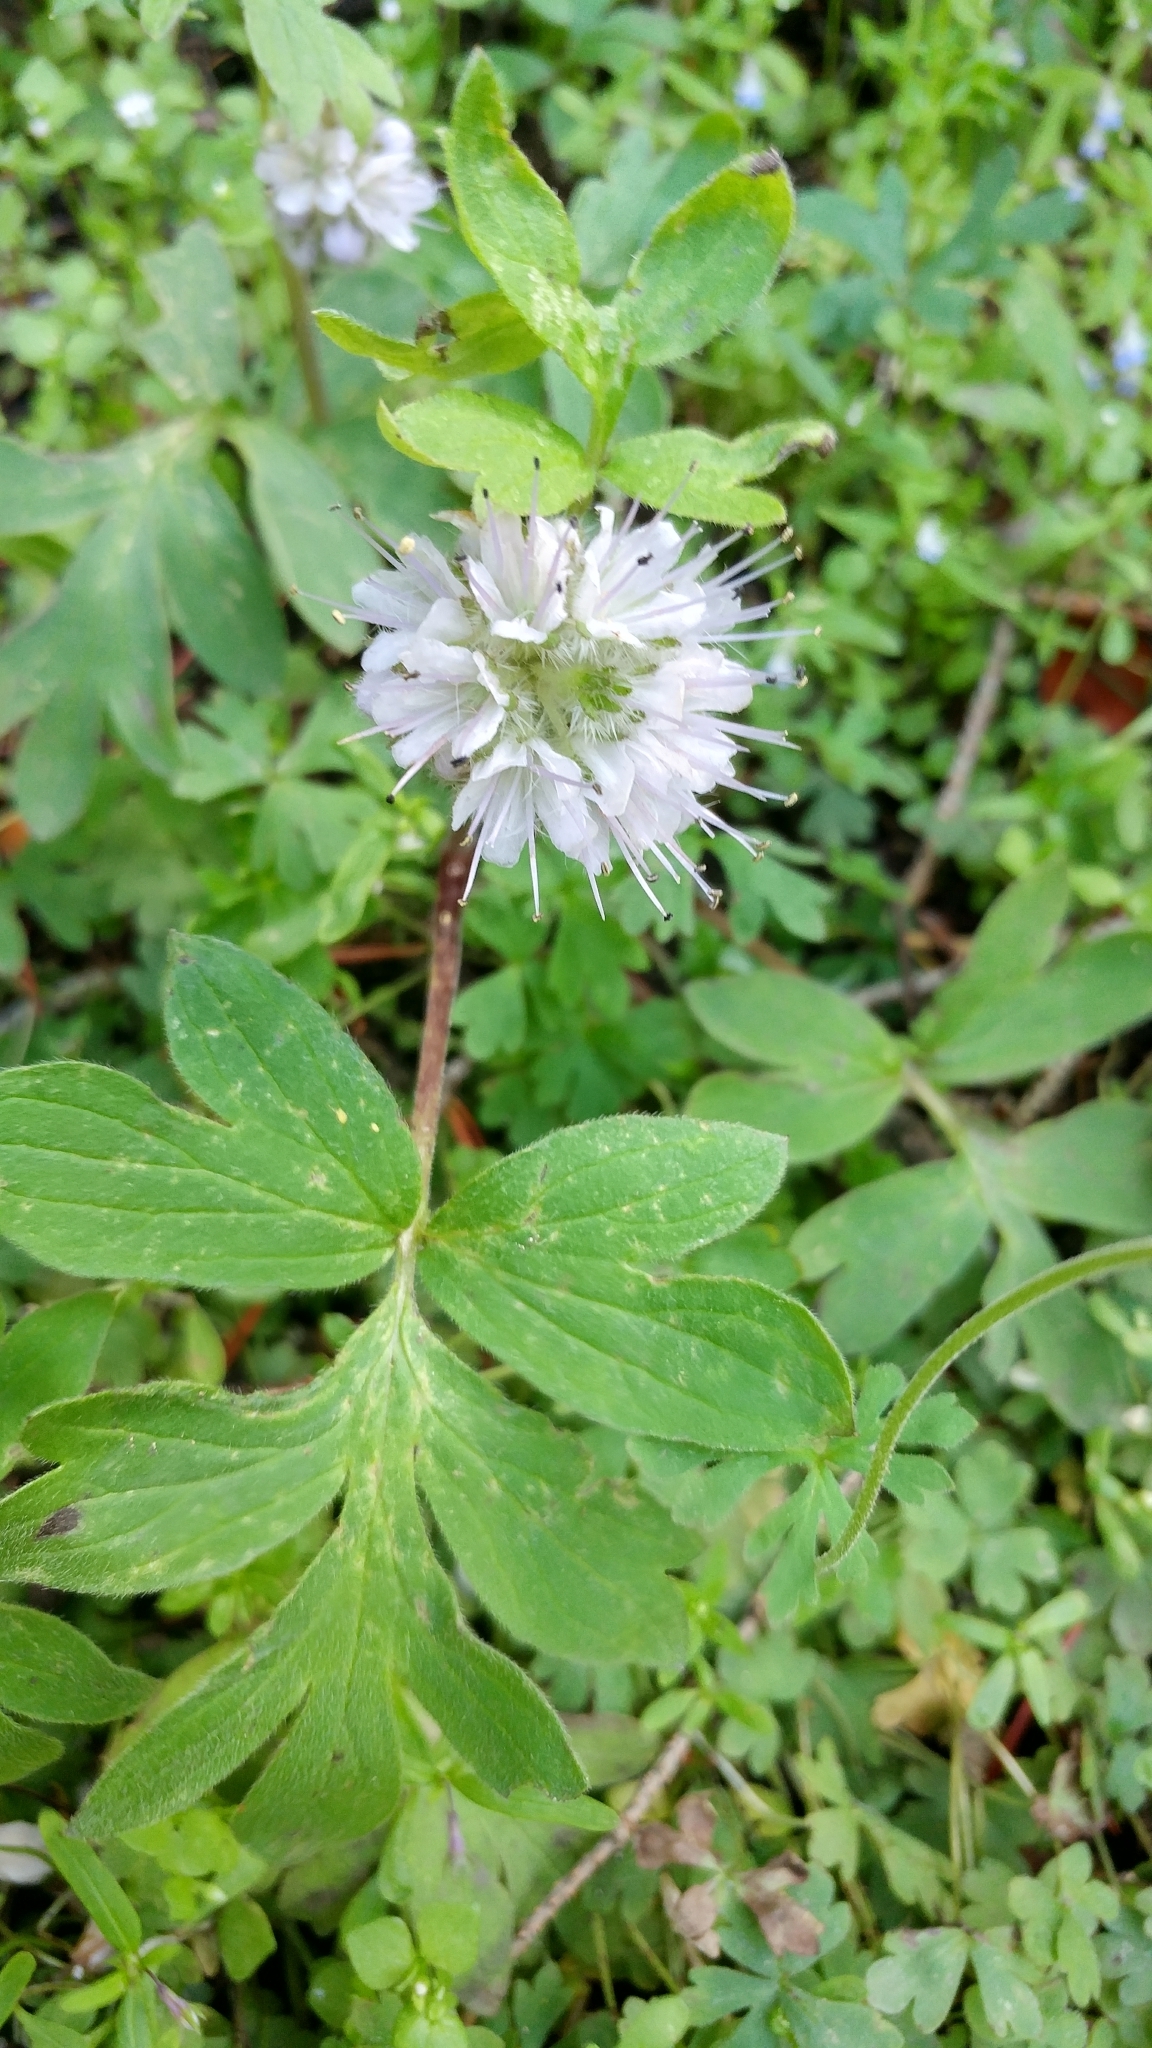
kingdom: Plantae
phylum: Tracheophyta
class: Magnoliopsida
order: Boraginales
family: Hydrophyllaceae
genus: Hydrophyllum
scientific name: Hydrophyllum capitatum
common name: Woollen-breeches
